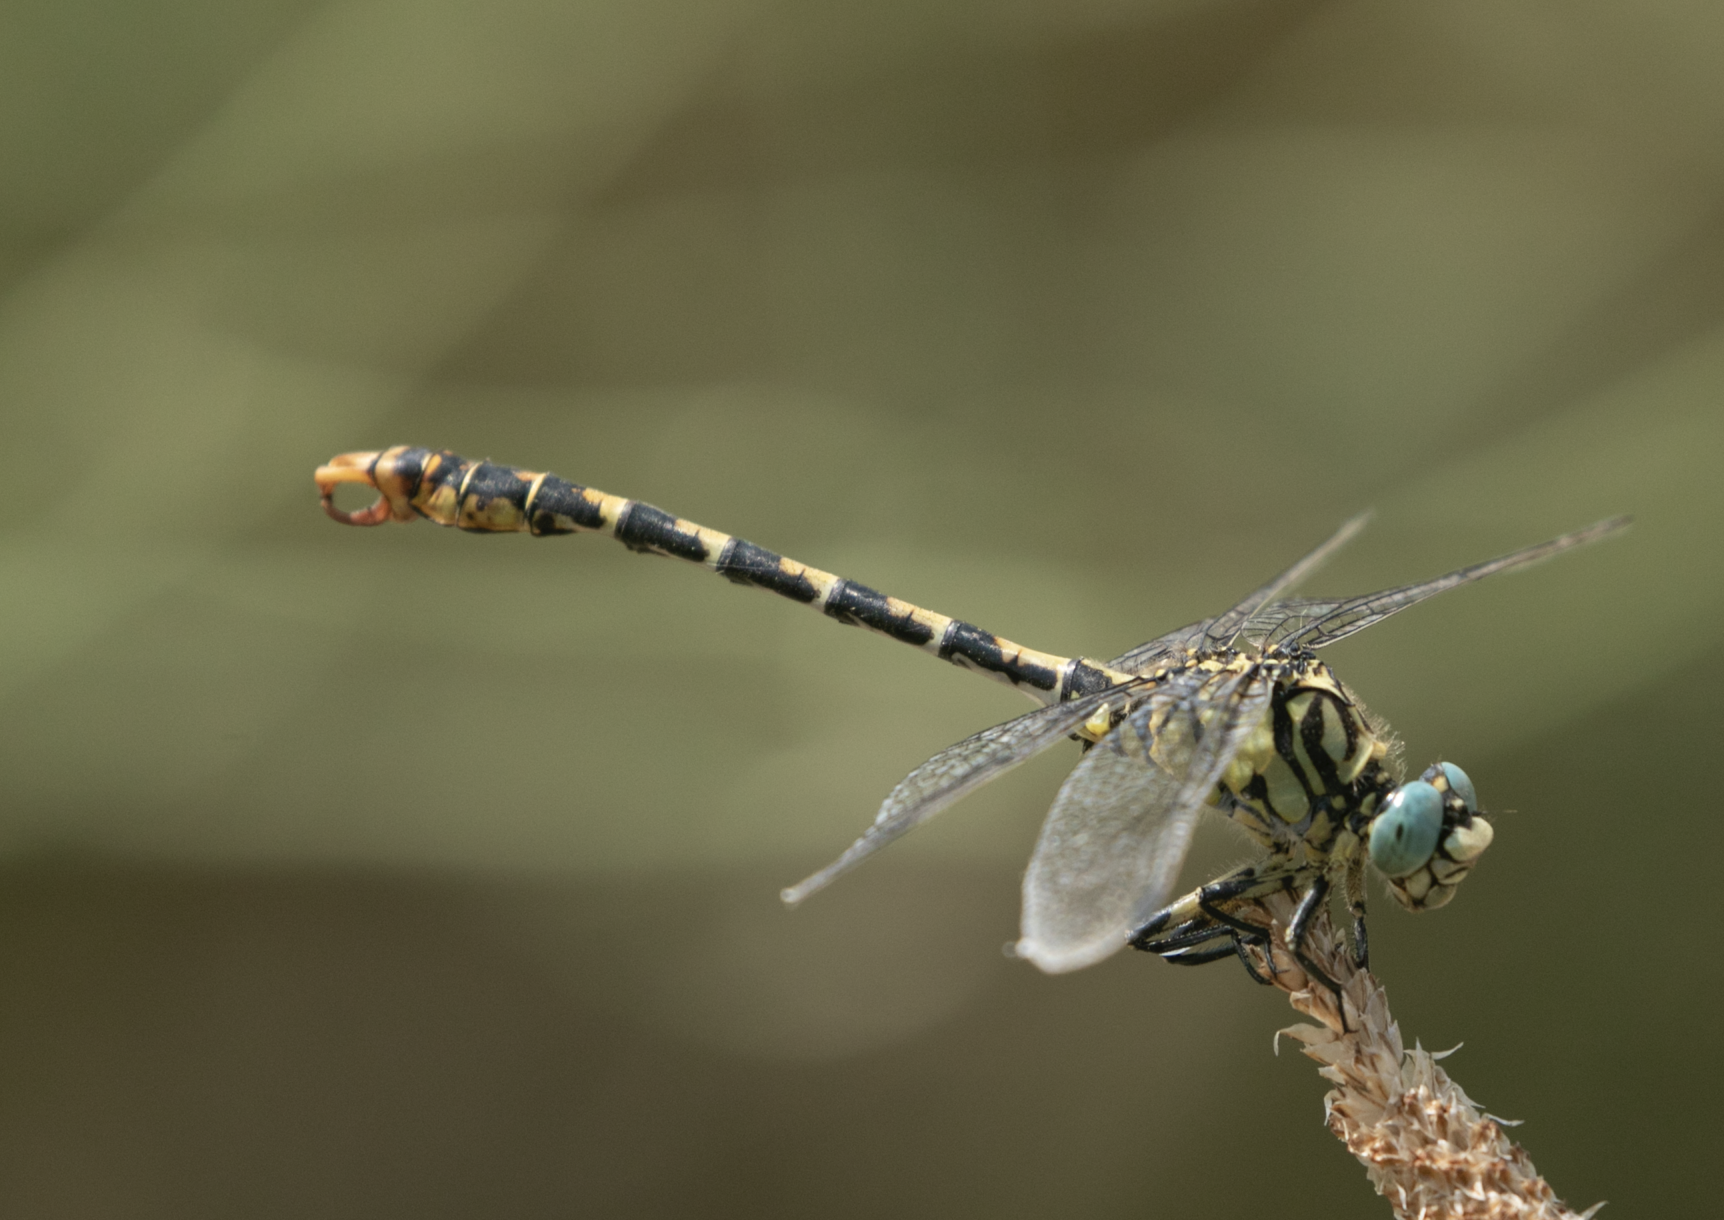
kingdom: Animalia
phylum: Arthropoda
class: Insecta
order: Odonata
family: Gomphidae
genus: Onychogomphus
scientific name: Onychogomphus forcipatus
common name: Small pincertail
